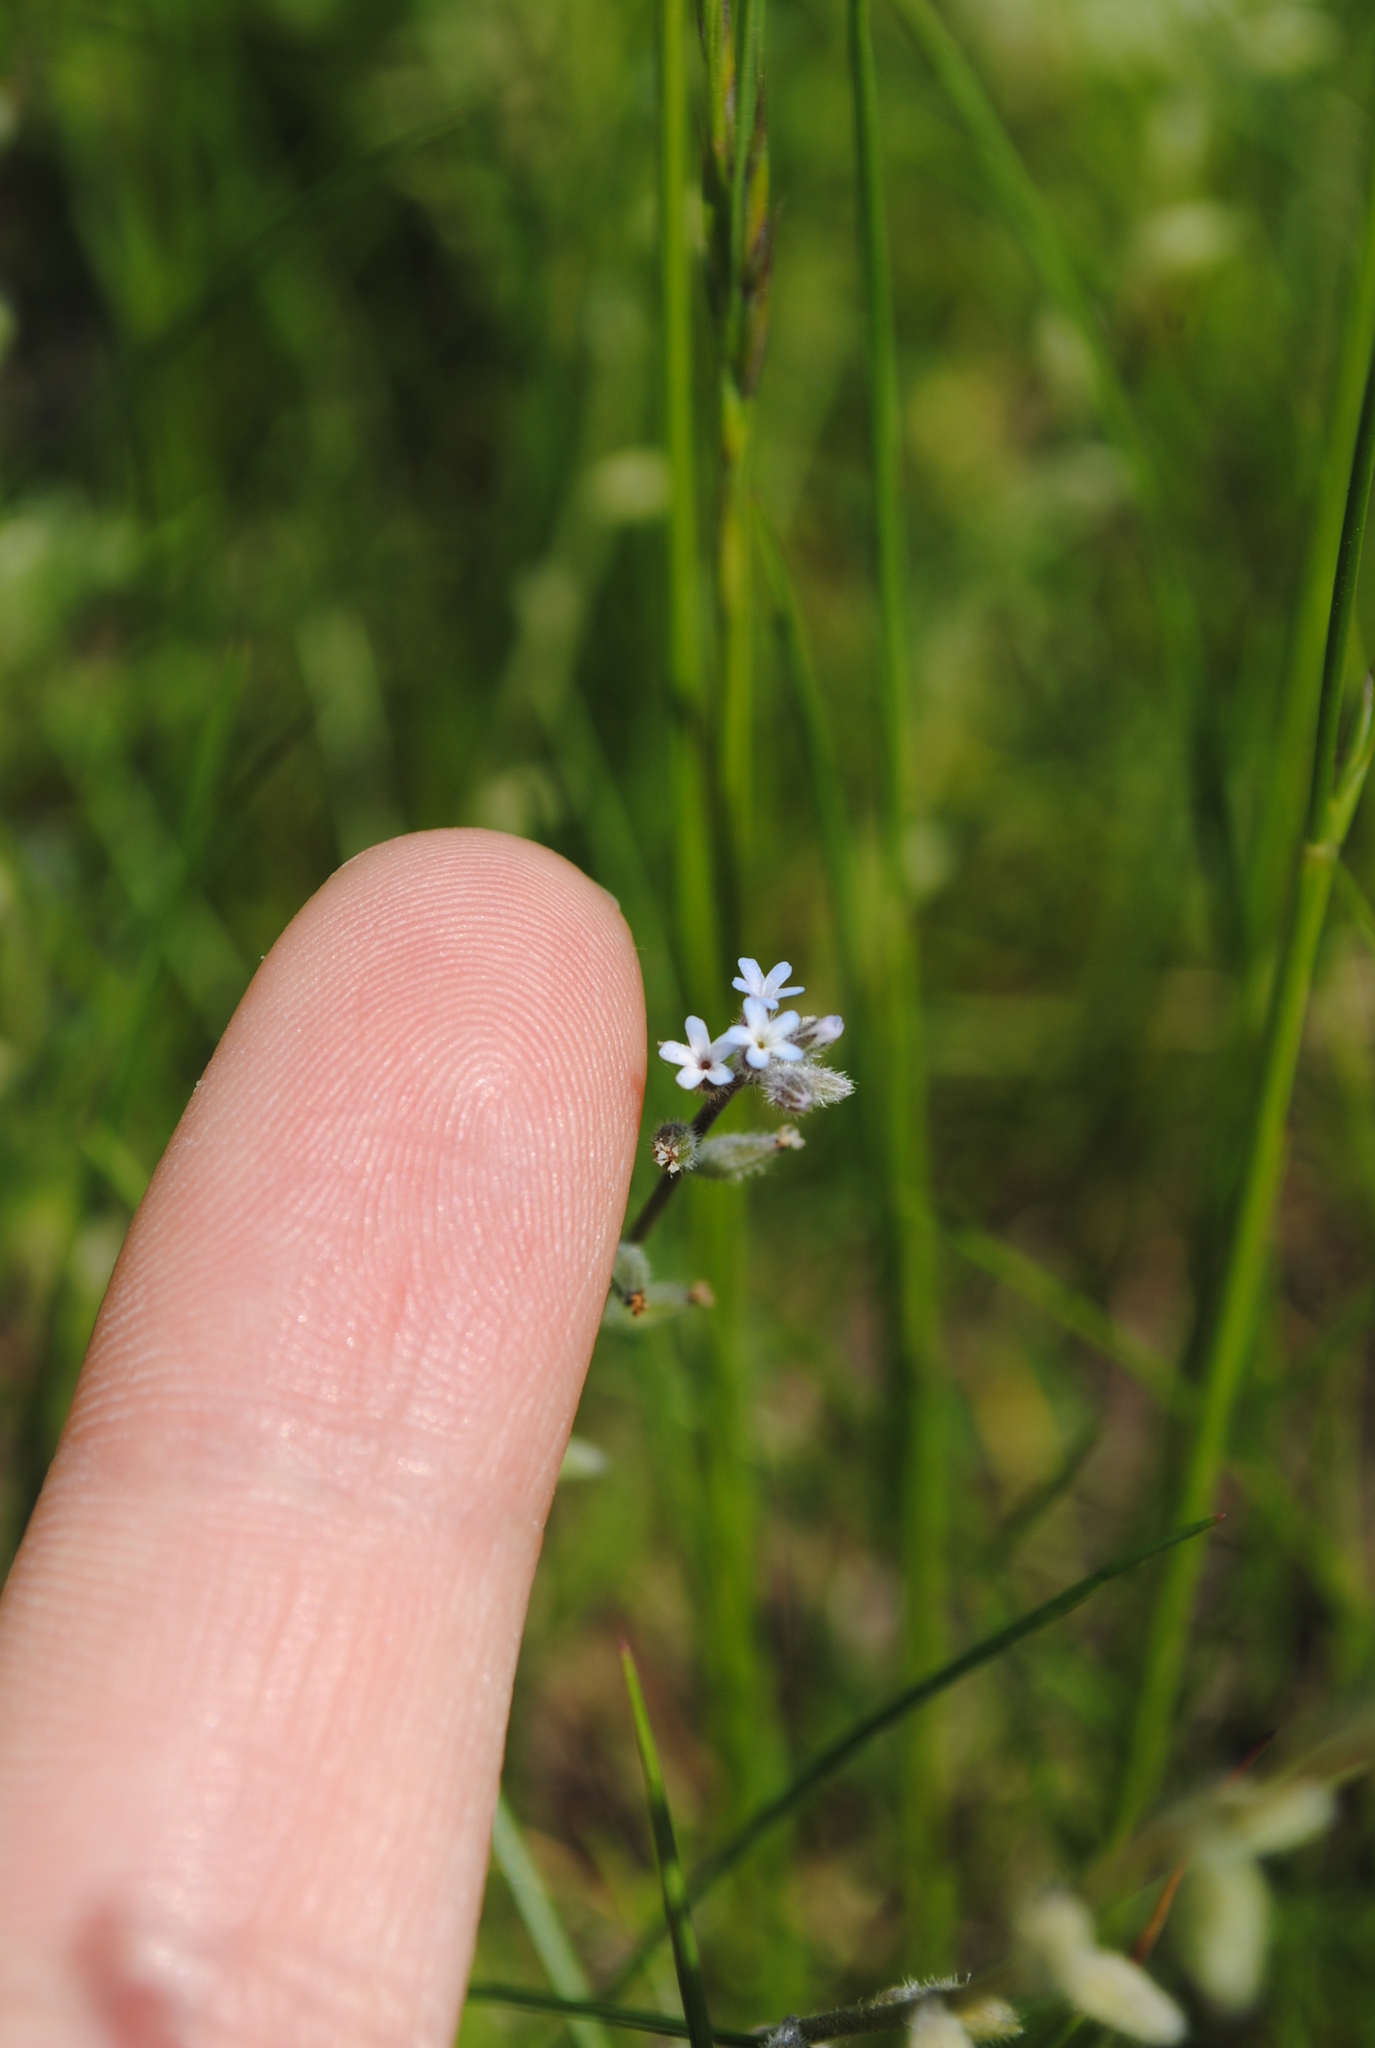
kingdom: Plantae
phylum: Tracheophyta
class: Magnoliopsida
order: Boraginales
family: Boraginaceae
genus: Myosotis
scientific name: Myosotis stricta
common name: Strict forget-me-not
